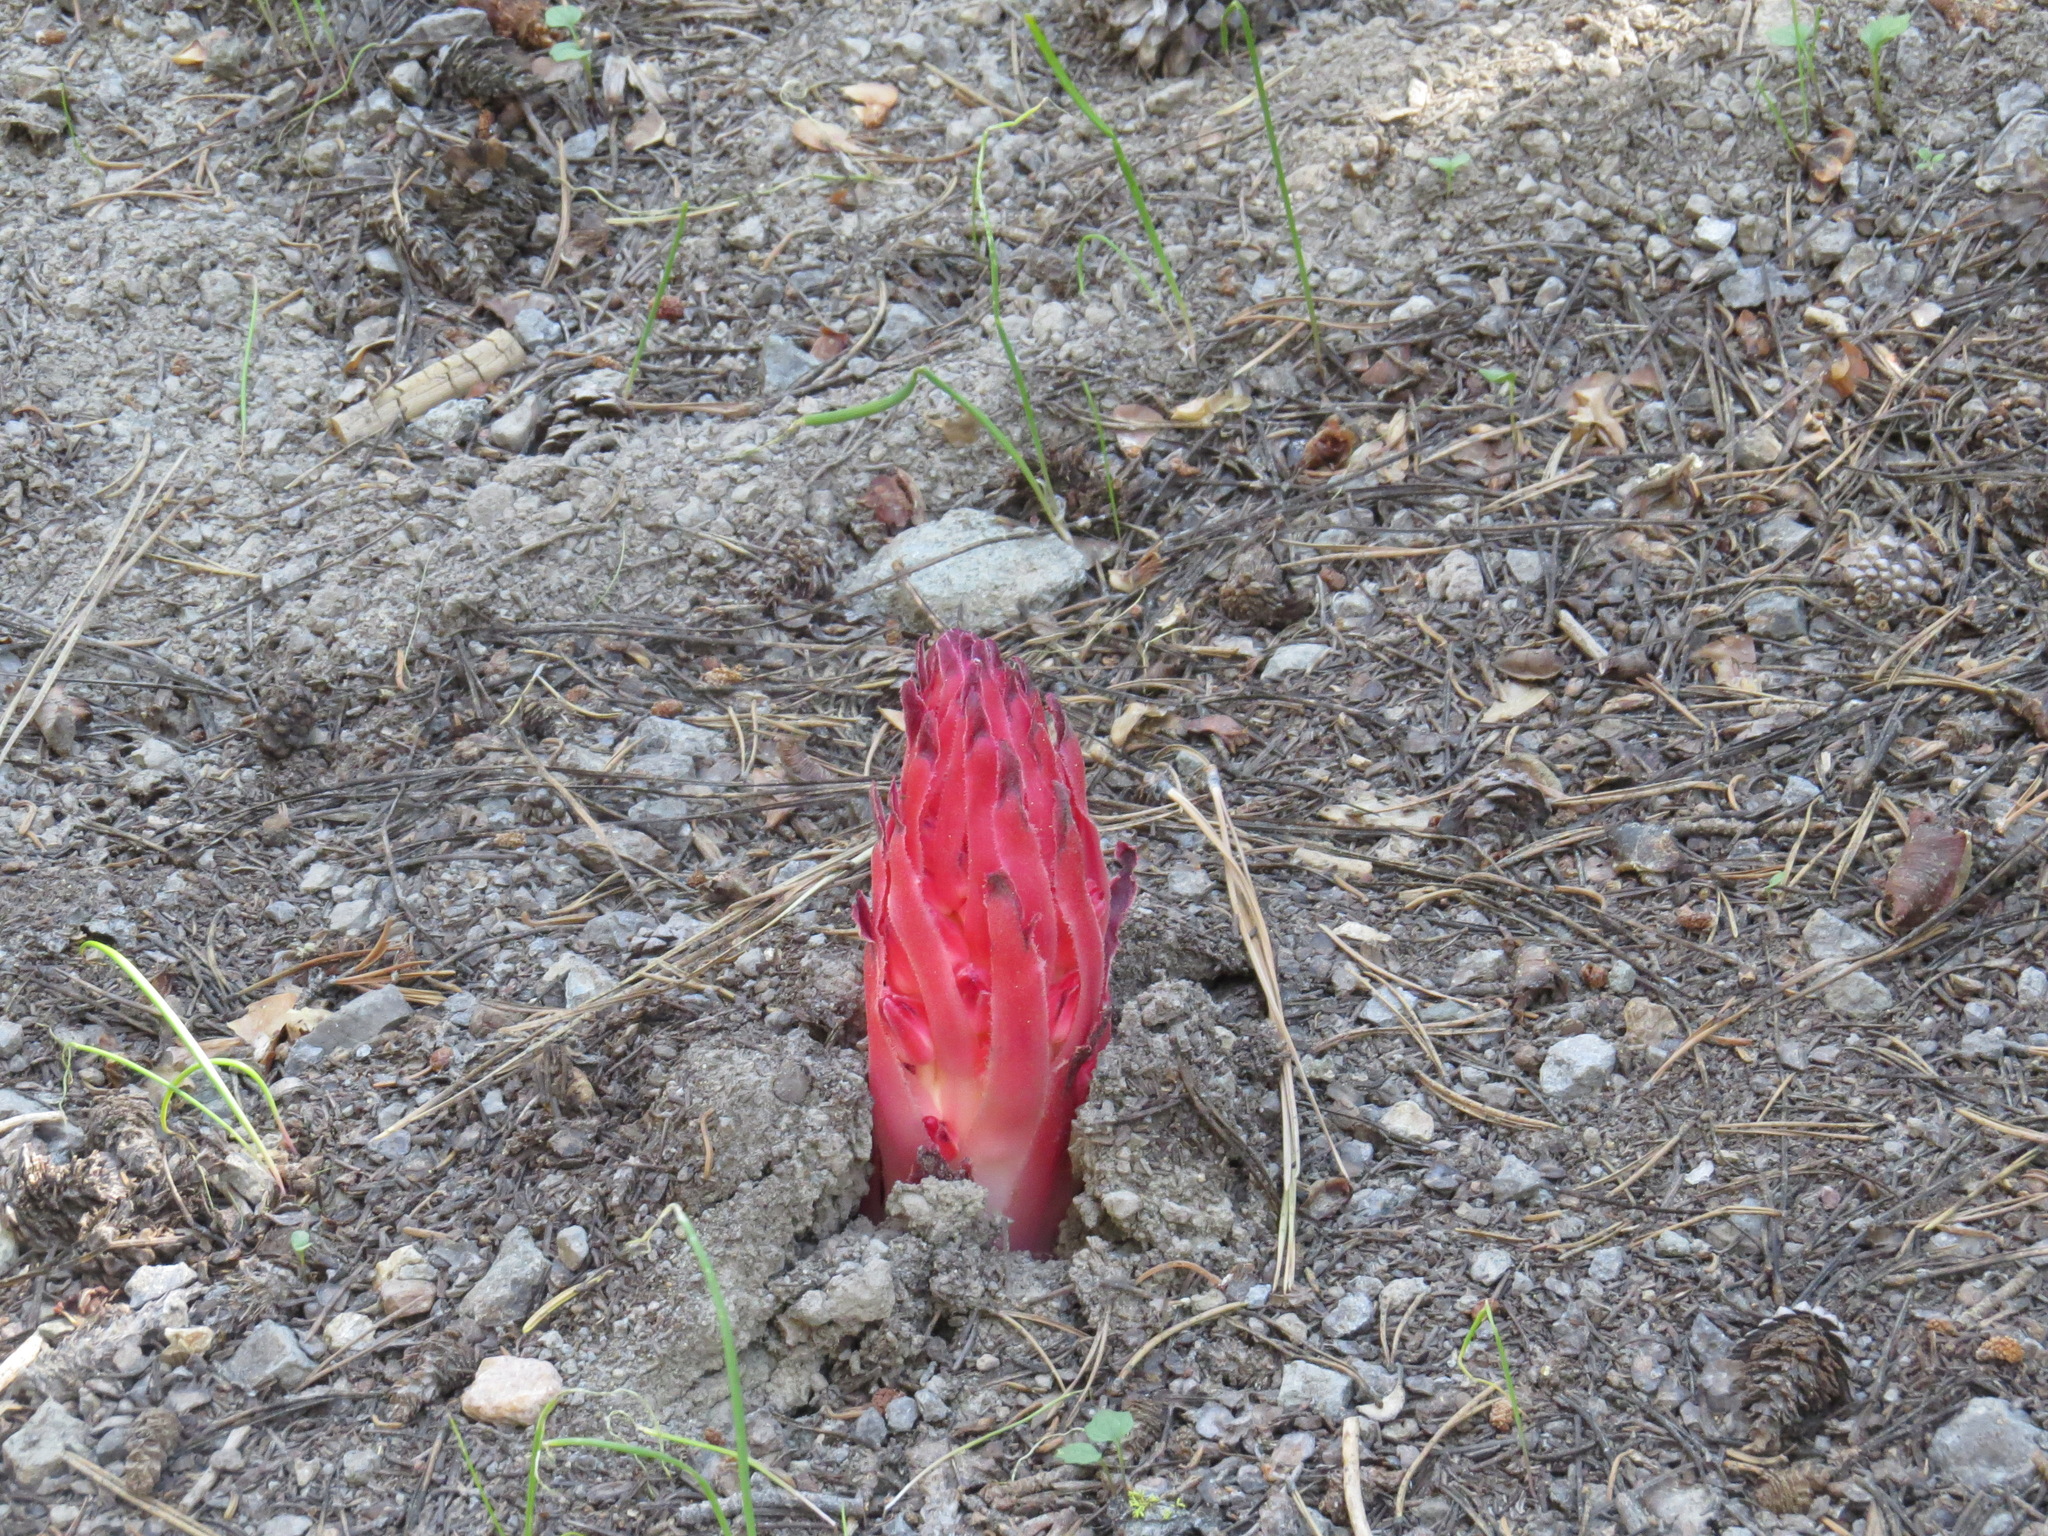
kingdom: Plantae
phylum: Tracheophyta
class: Magnoliopsida
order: Ericales
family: Ericaceae
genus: Sarcodes
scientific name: Sarcodes sanguinea
